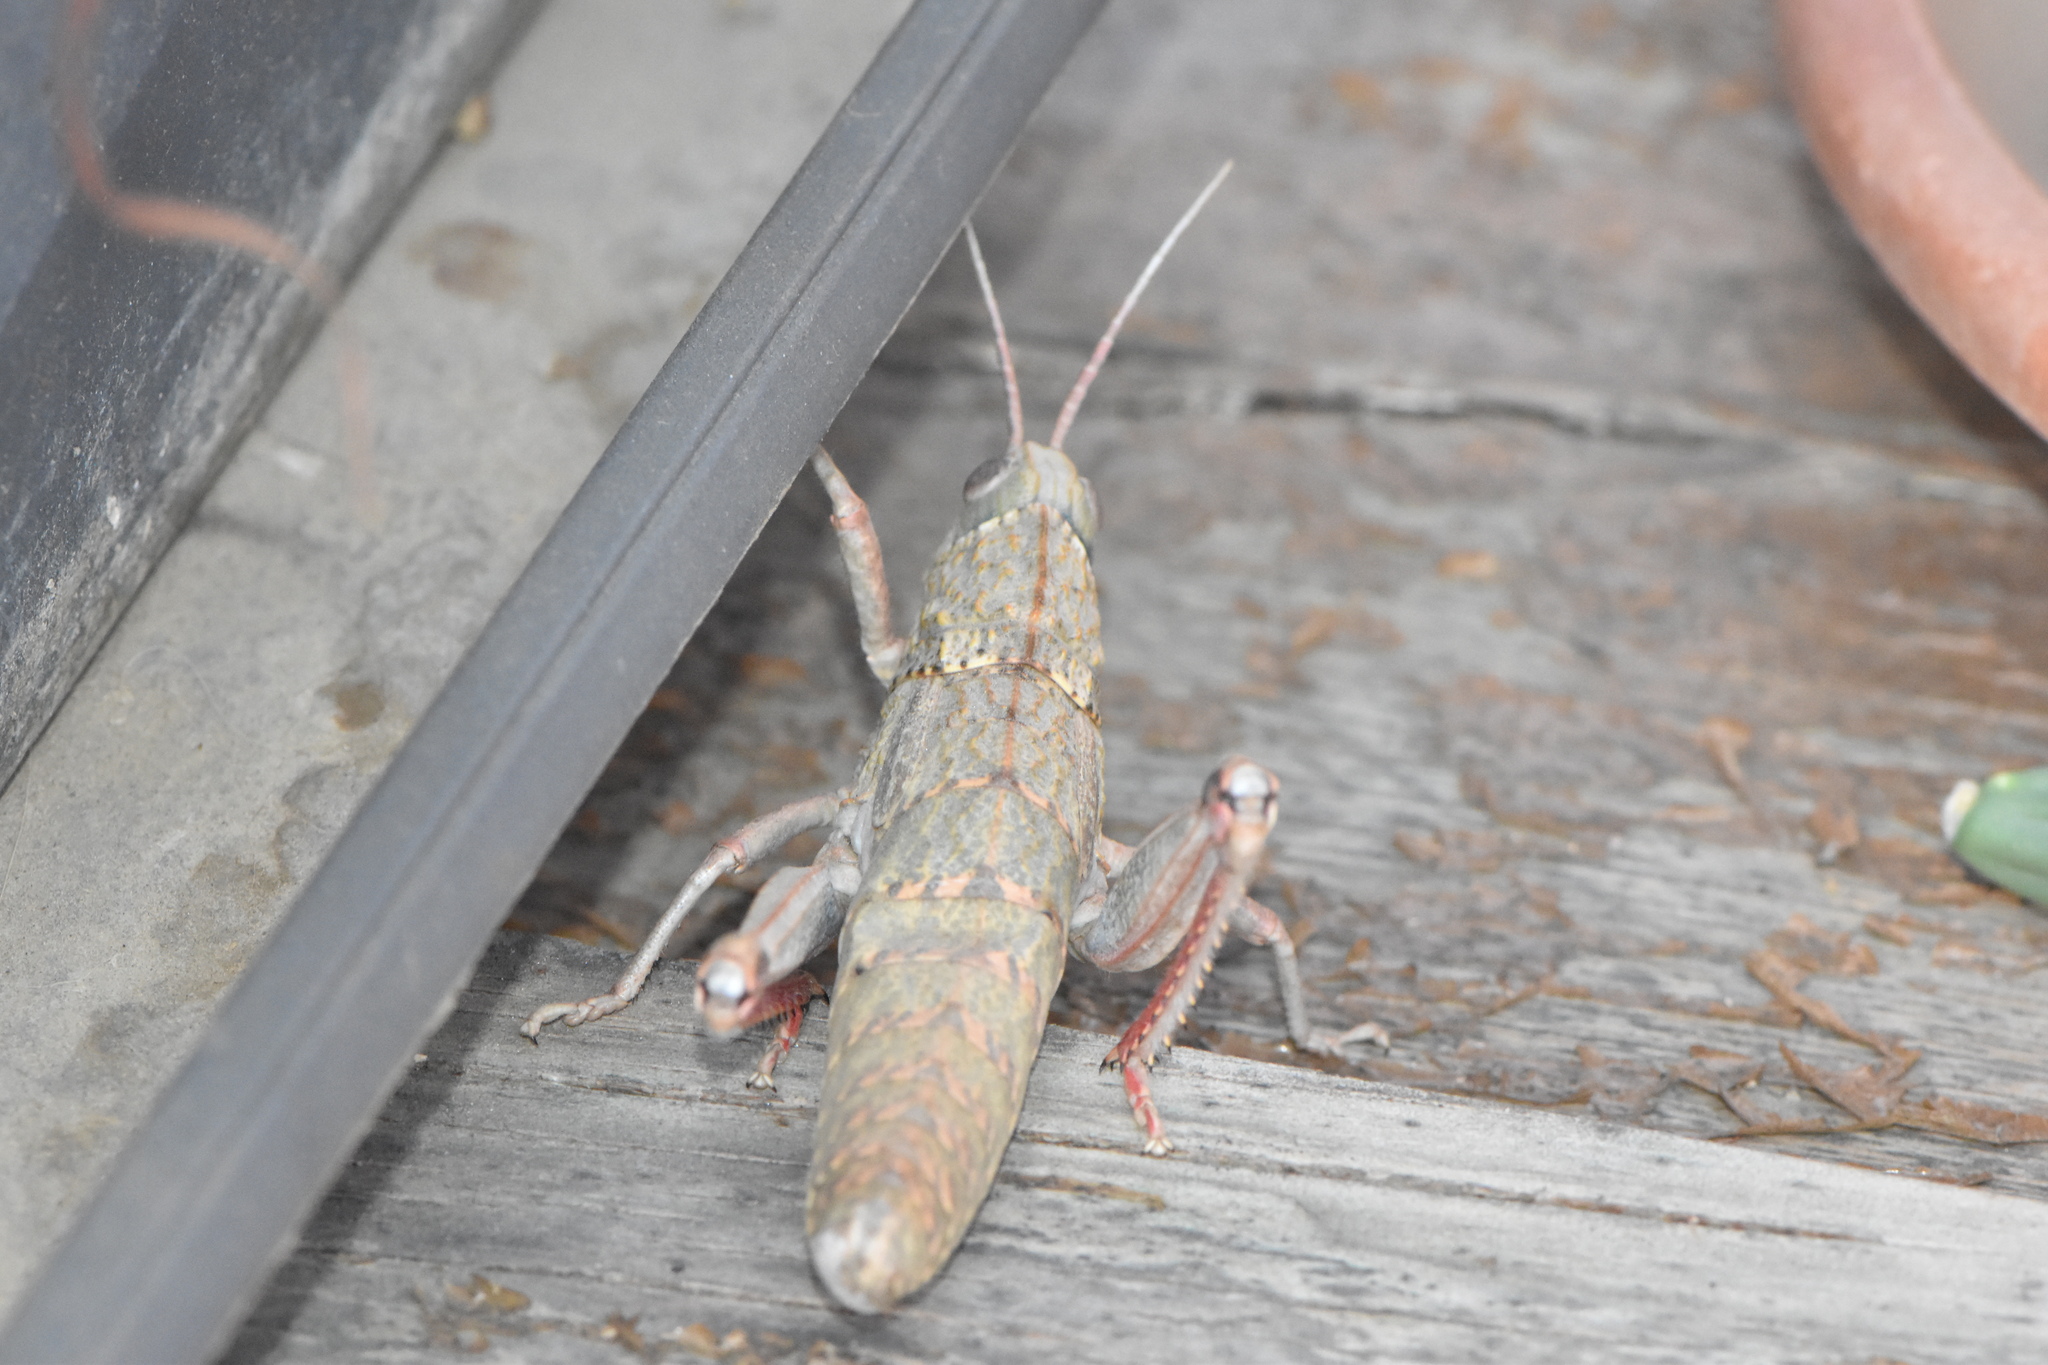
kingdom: Animalia
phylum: Arthropoda
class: Insecta
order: Orthoptera
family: Pamphagidae
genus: Acinipe
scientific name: Acinipe hesperica
